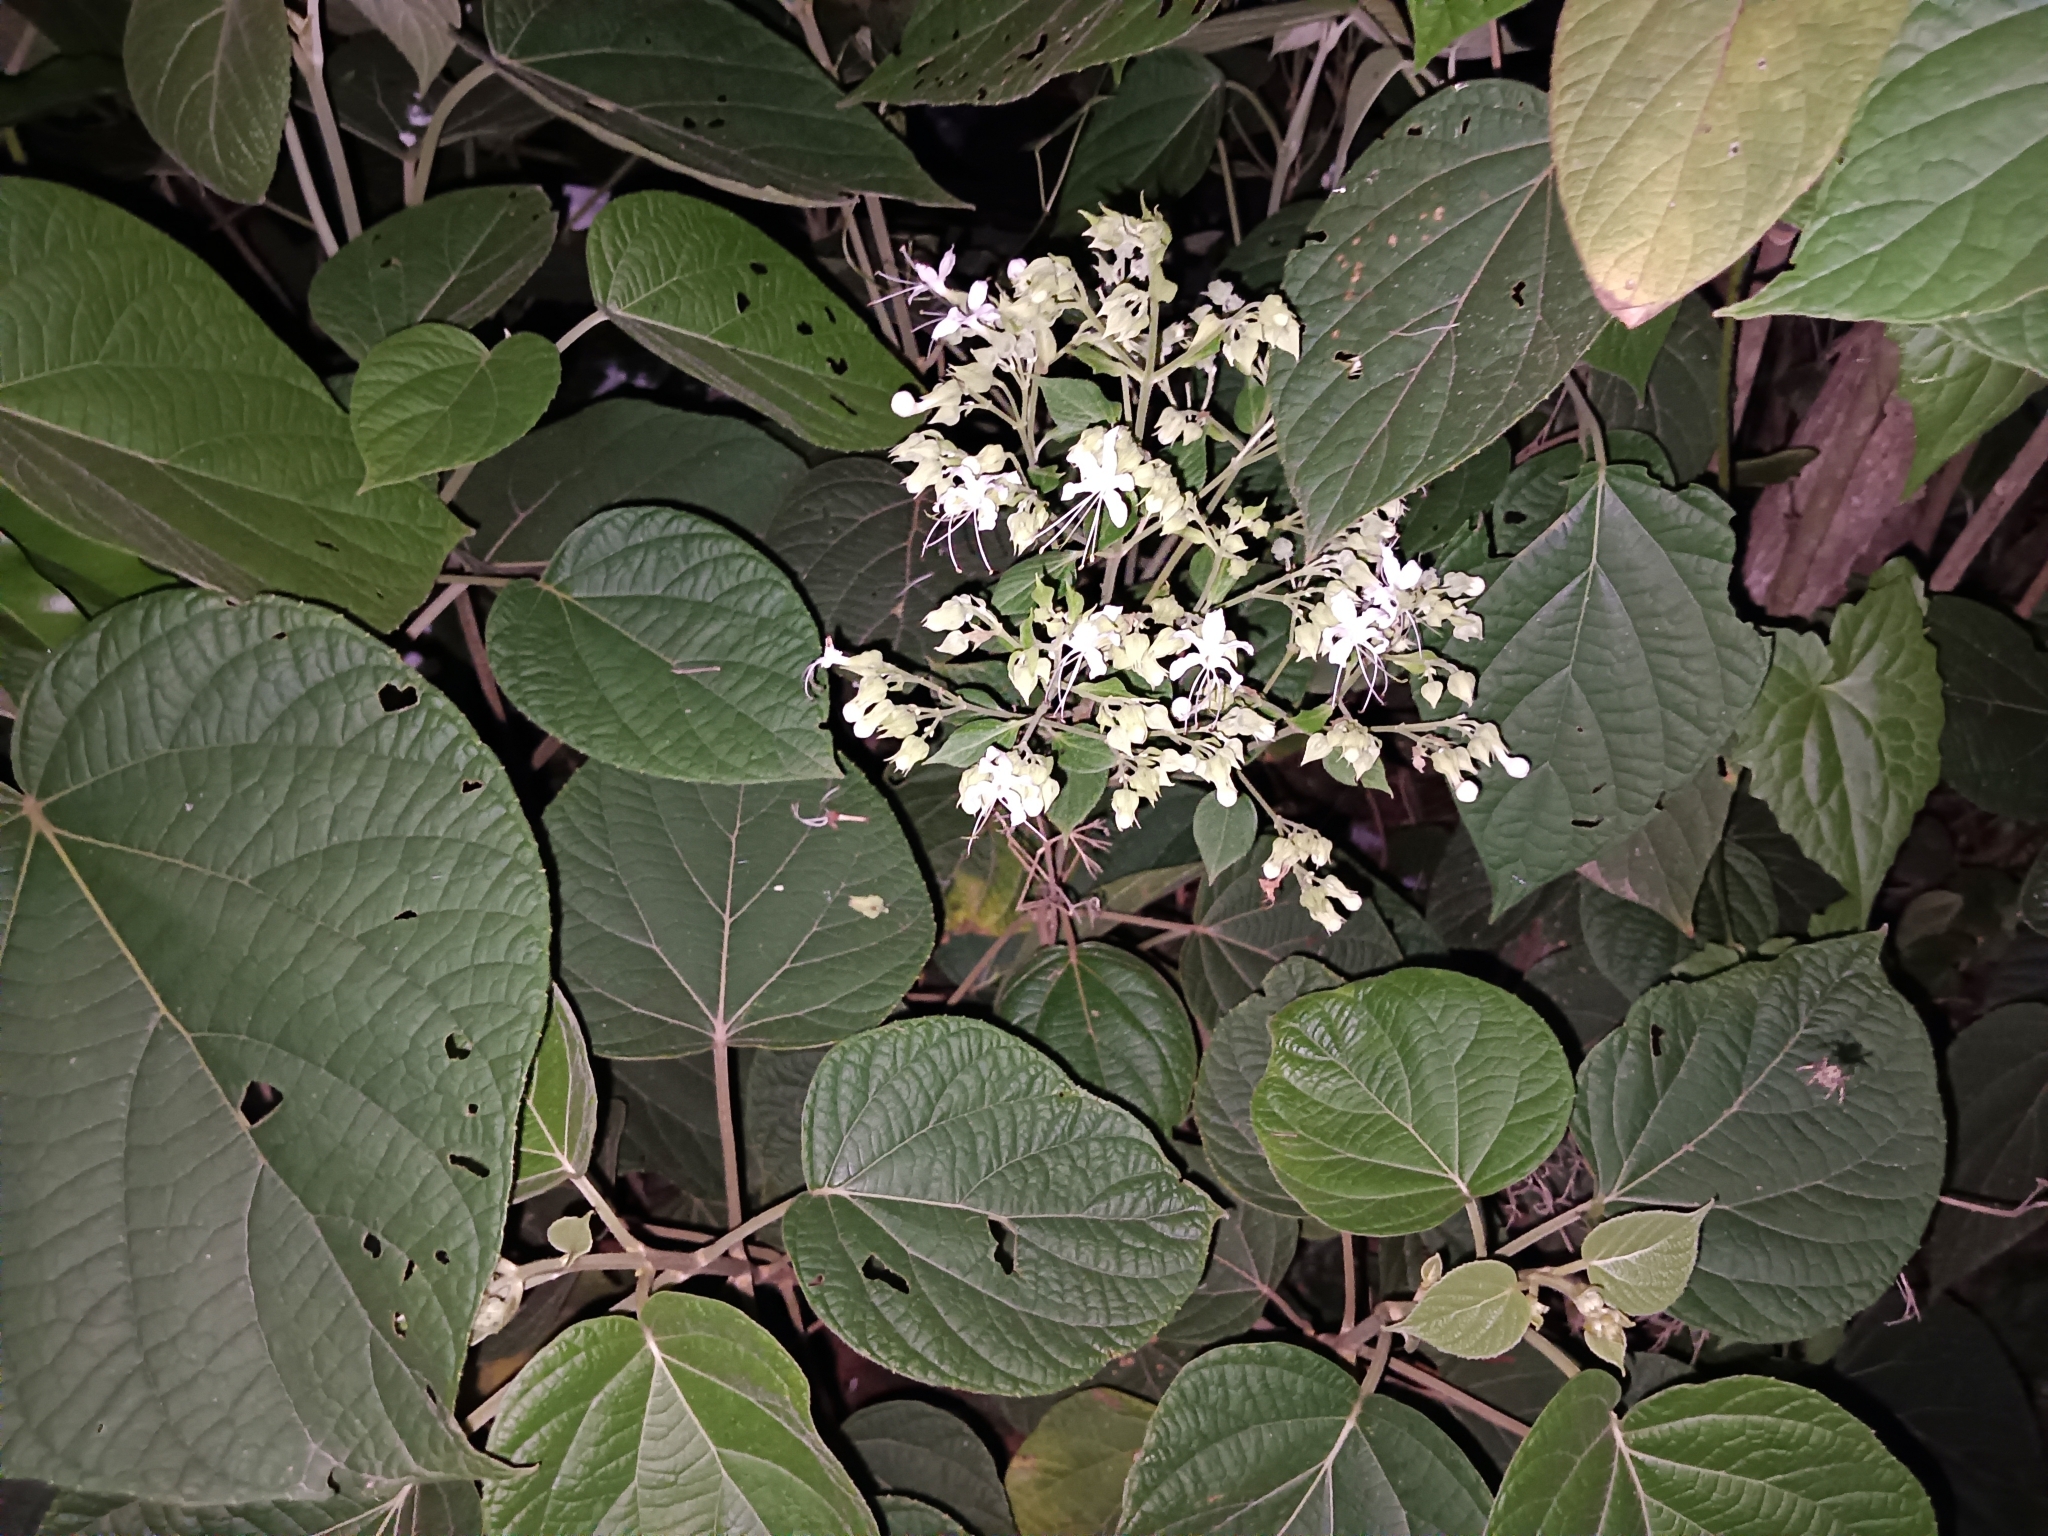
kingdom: Plantae
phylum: Tracheophyta
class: Magnoliopsida
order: Lamiales
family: Lamiaceae
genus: Clerodendrum
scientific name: Clerodendrum infortunatum
